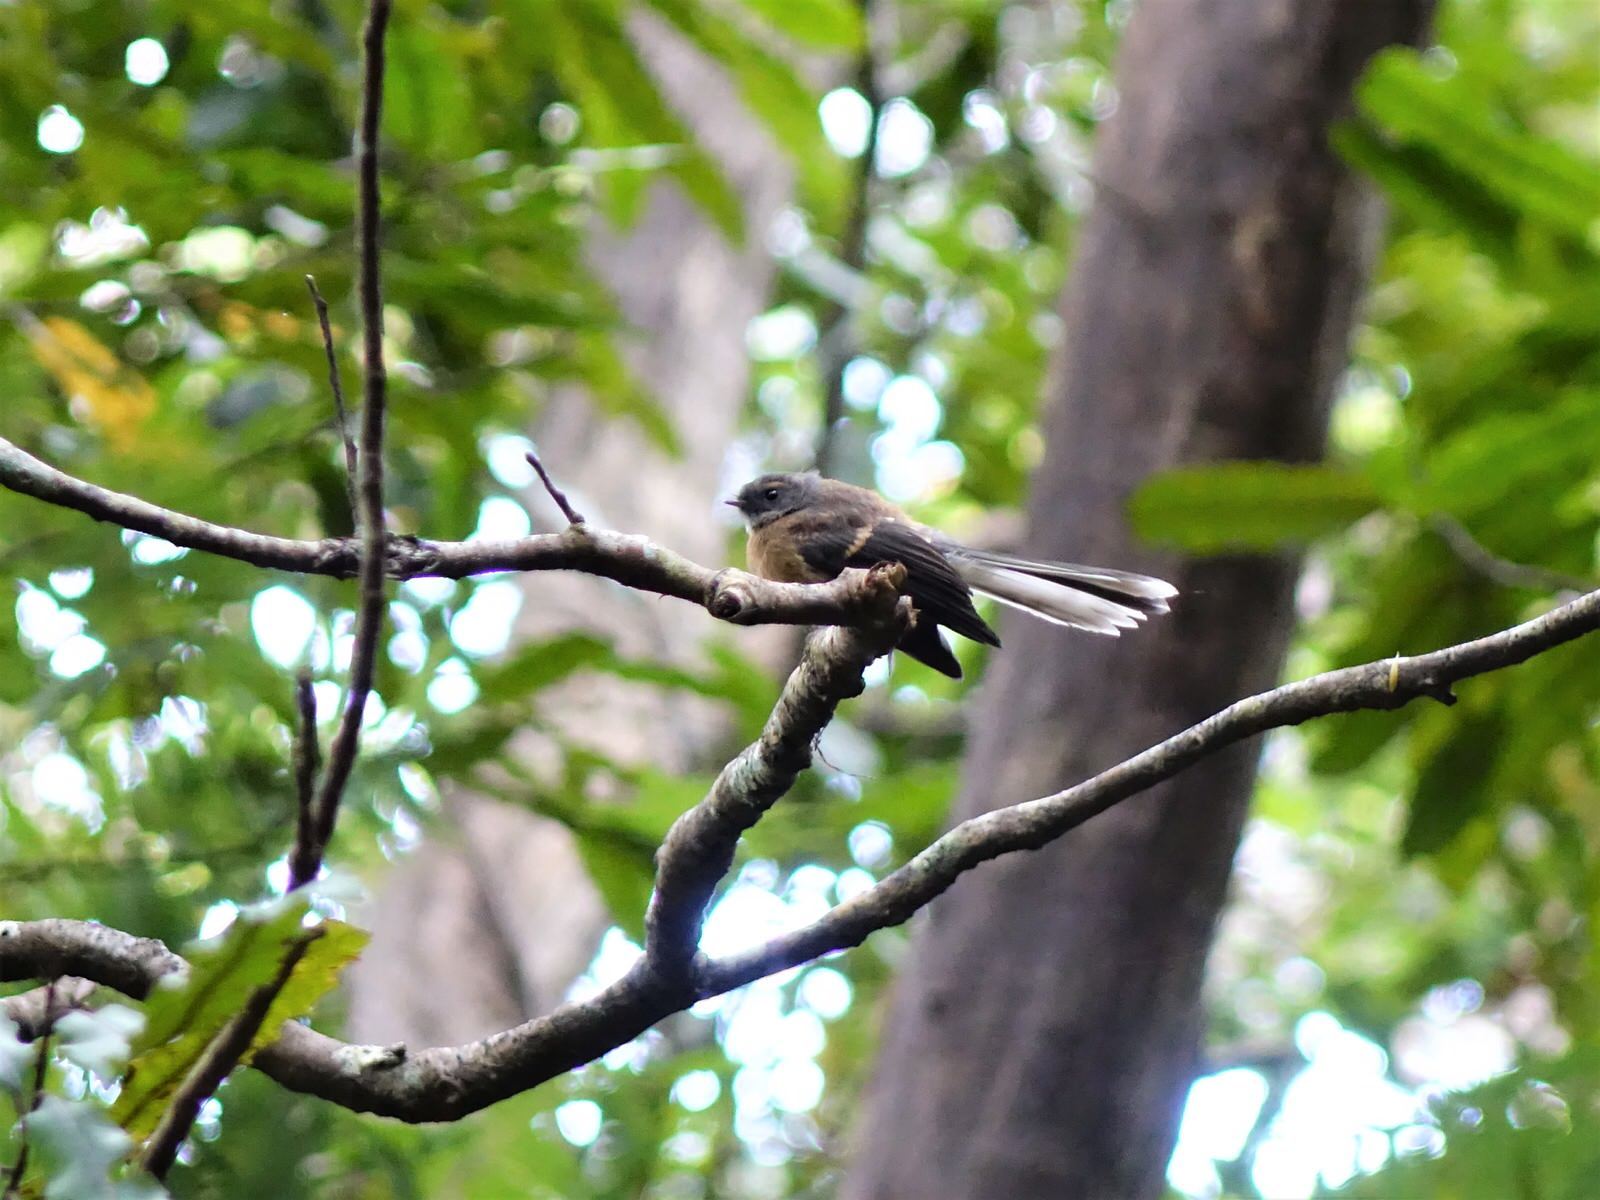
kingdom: Animalia
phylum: Chordata
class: Aves
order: Passeriformes
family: Rhipiduridae
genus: Rhipidura
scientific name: Rhipidura fuliginosa
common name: New zealand fantail
